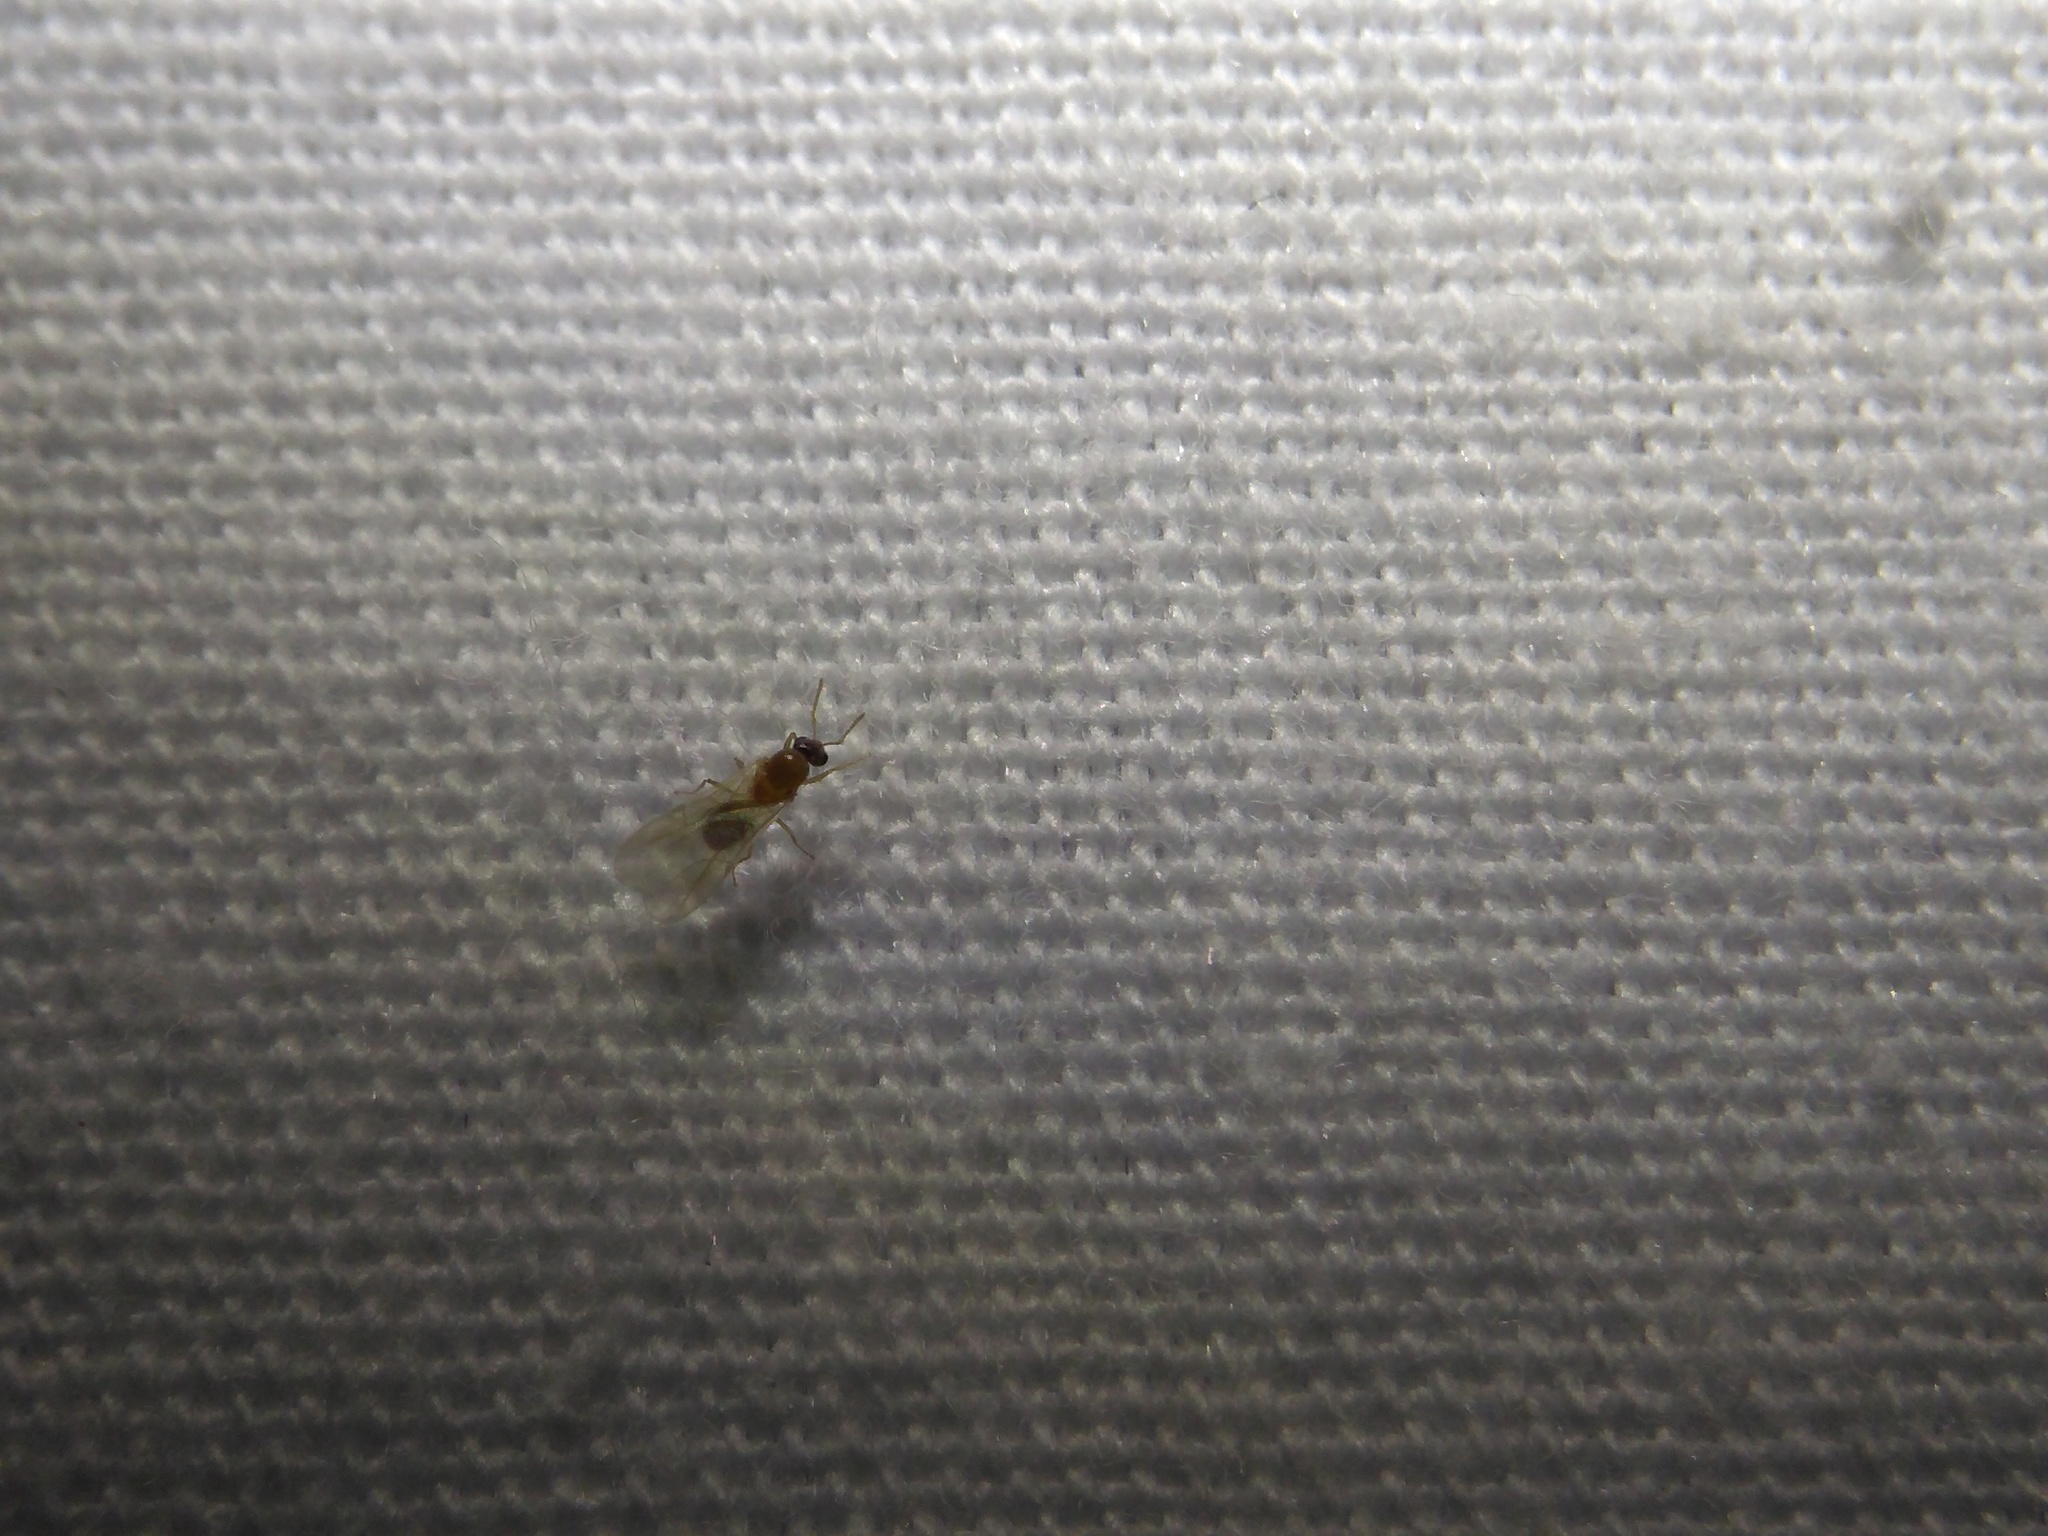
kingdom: Animalia
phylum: Arthropoda
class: Insecta
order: Hymenoptera
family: Formicidae
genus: Brachymyrmex
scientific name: Brachymyrmex patagonicus
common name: Dark rover ant
